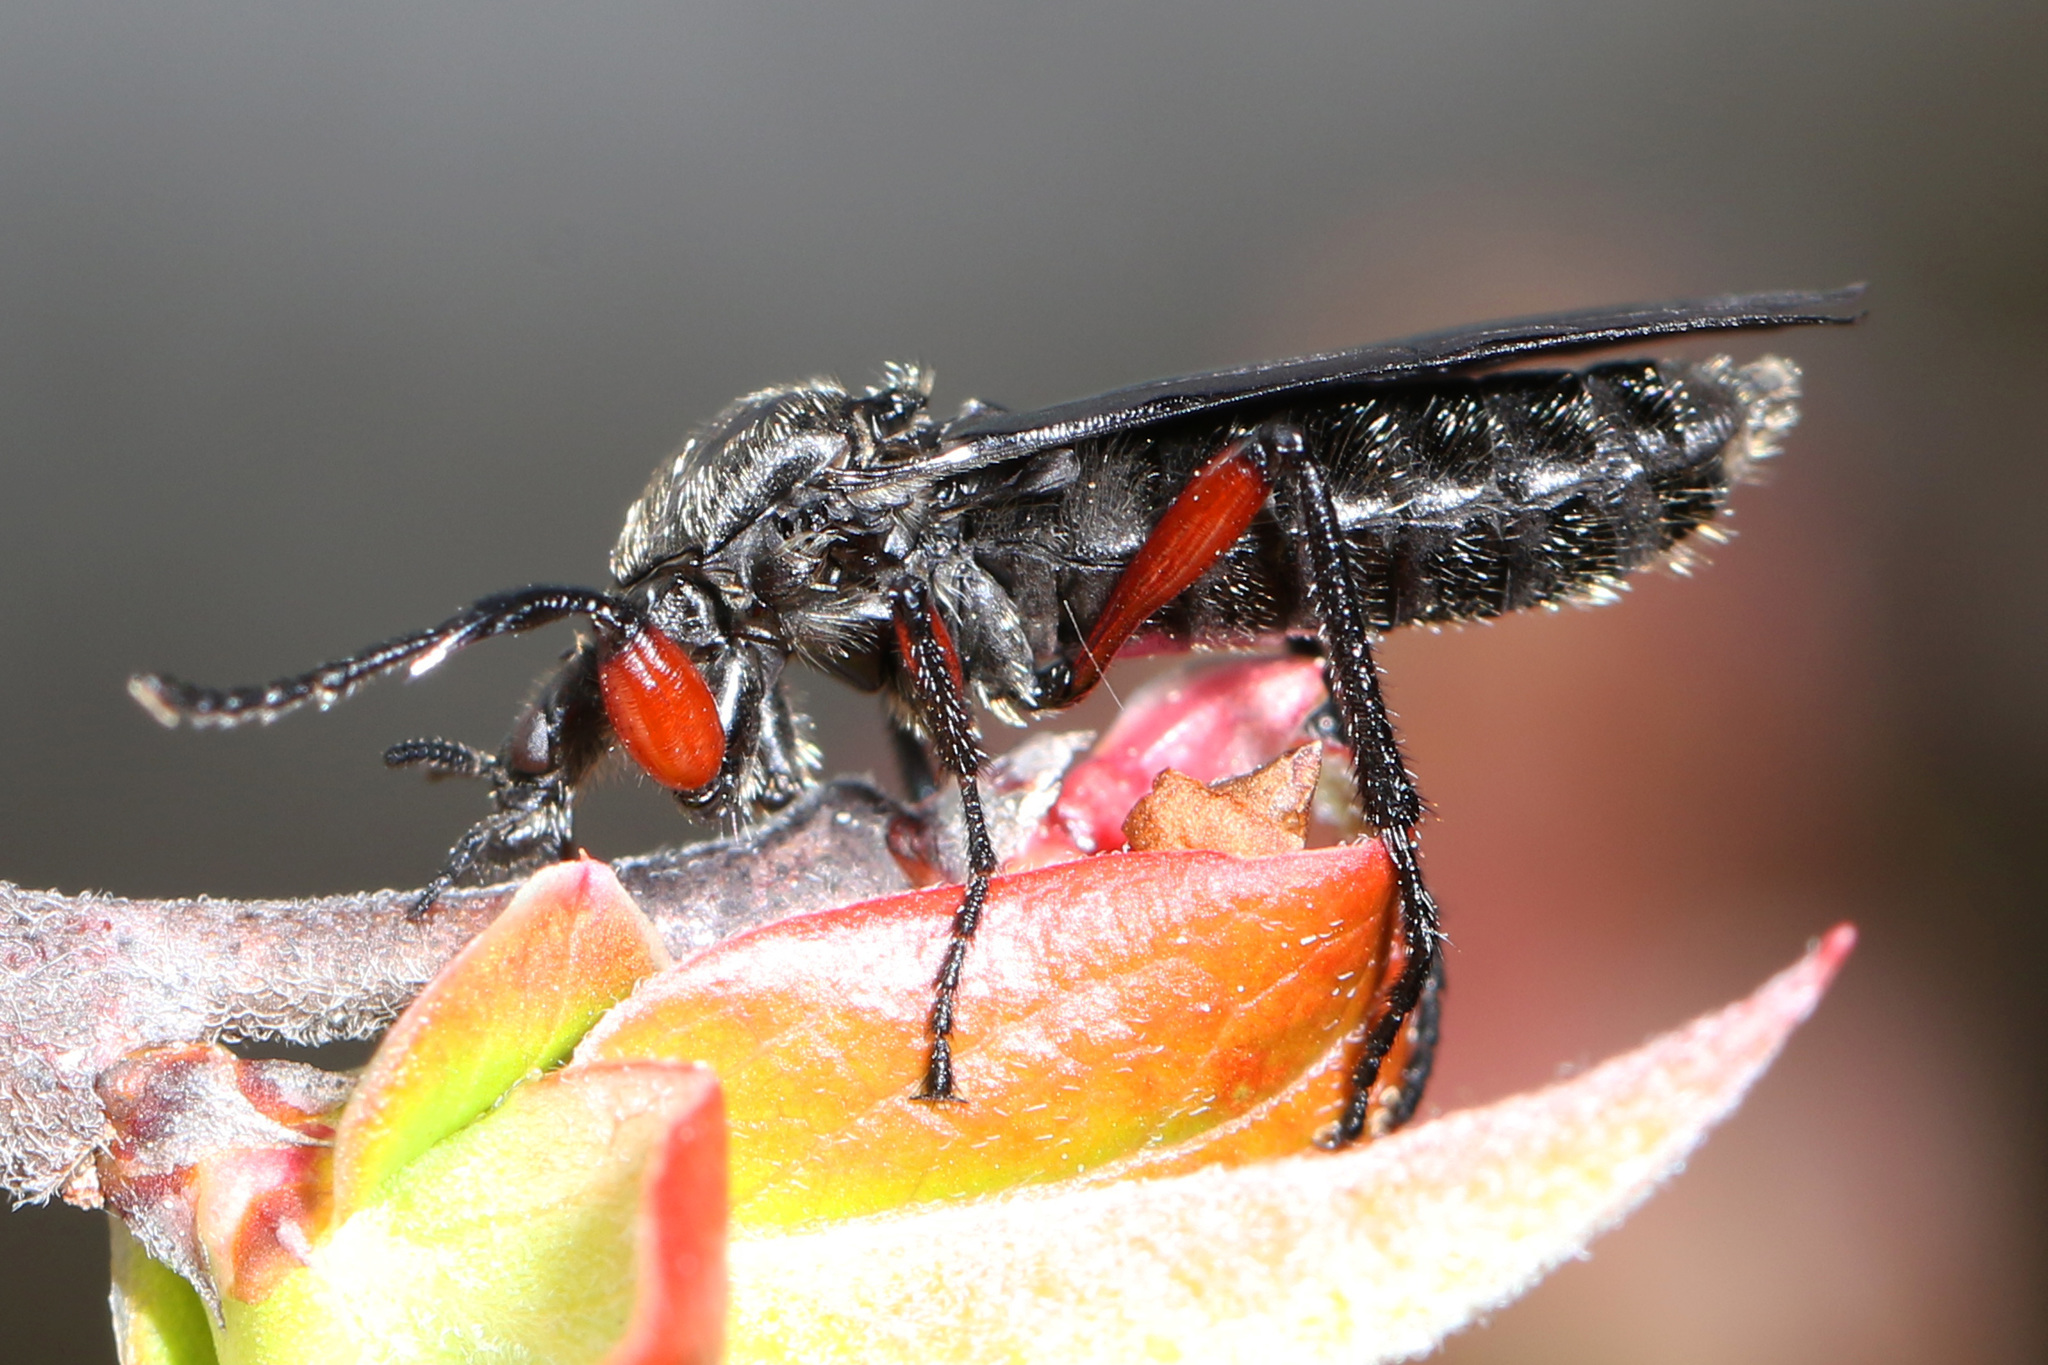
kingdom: Animalia
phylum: Arthropoda
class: Insecta
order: Diptera
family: Bibionidae
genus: Bibio
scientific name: Bibio femoratus
